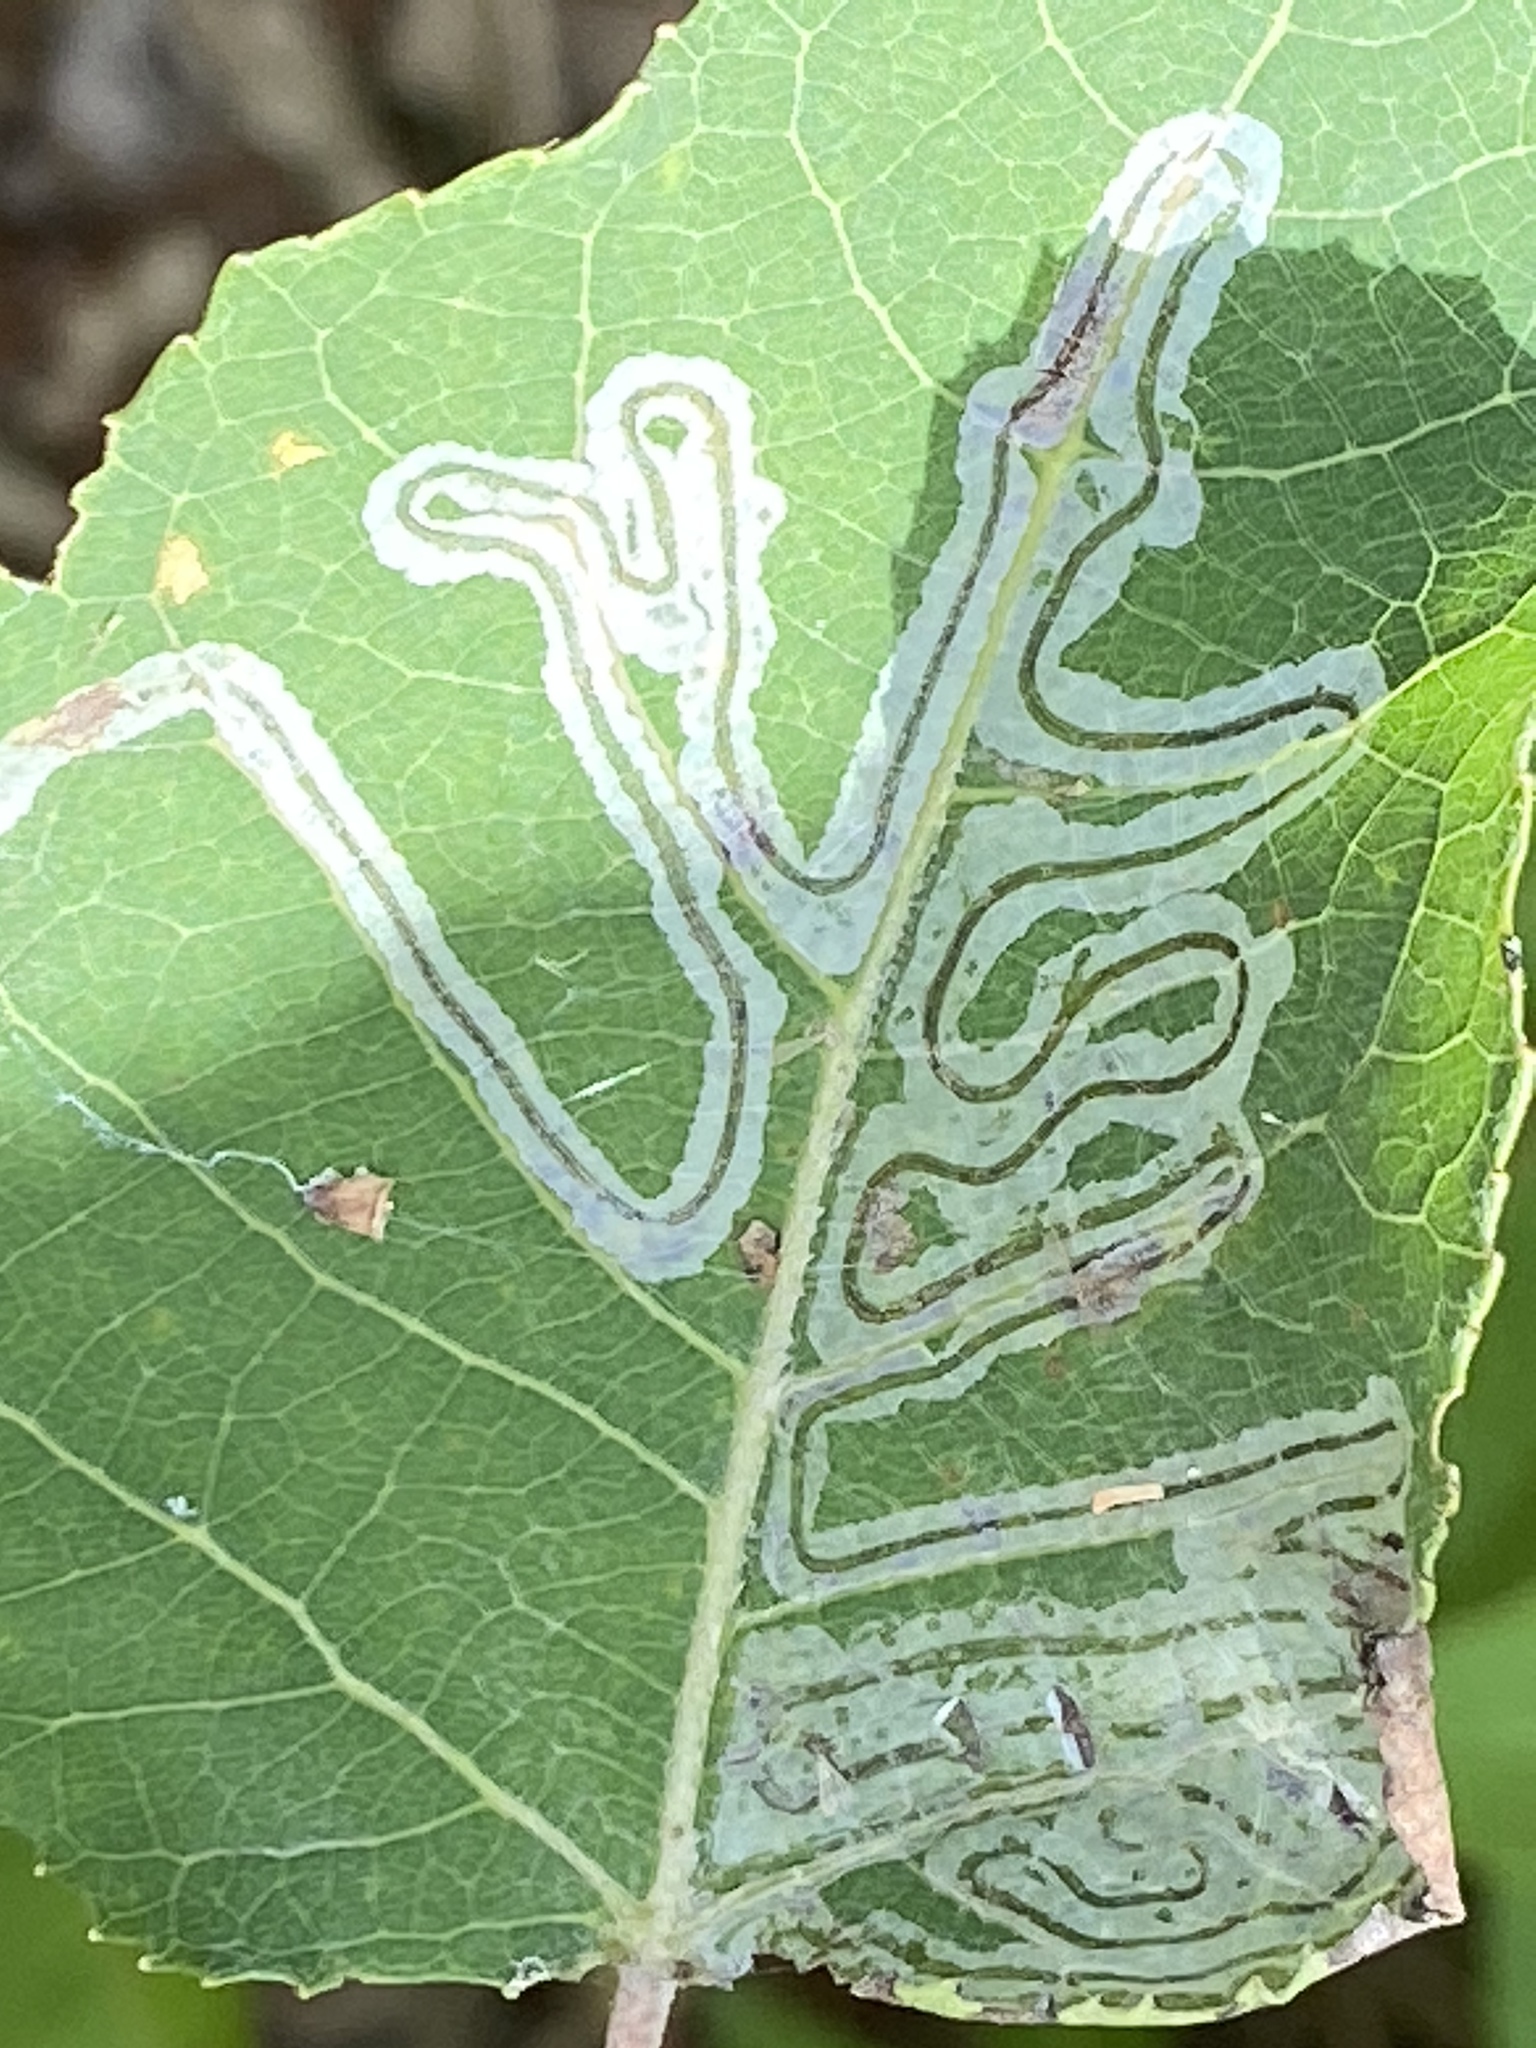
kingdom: Animalia
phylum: Arthropoda
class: Insecta
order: Lepidoptera
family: Gracillariidae
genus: Phyllocnistis
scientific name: Phyllocnistis populiella
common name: Aspen serpentine leafminer moth
